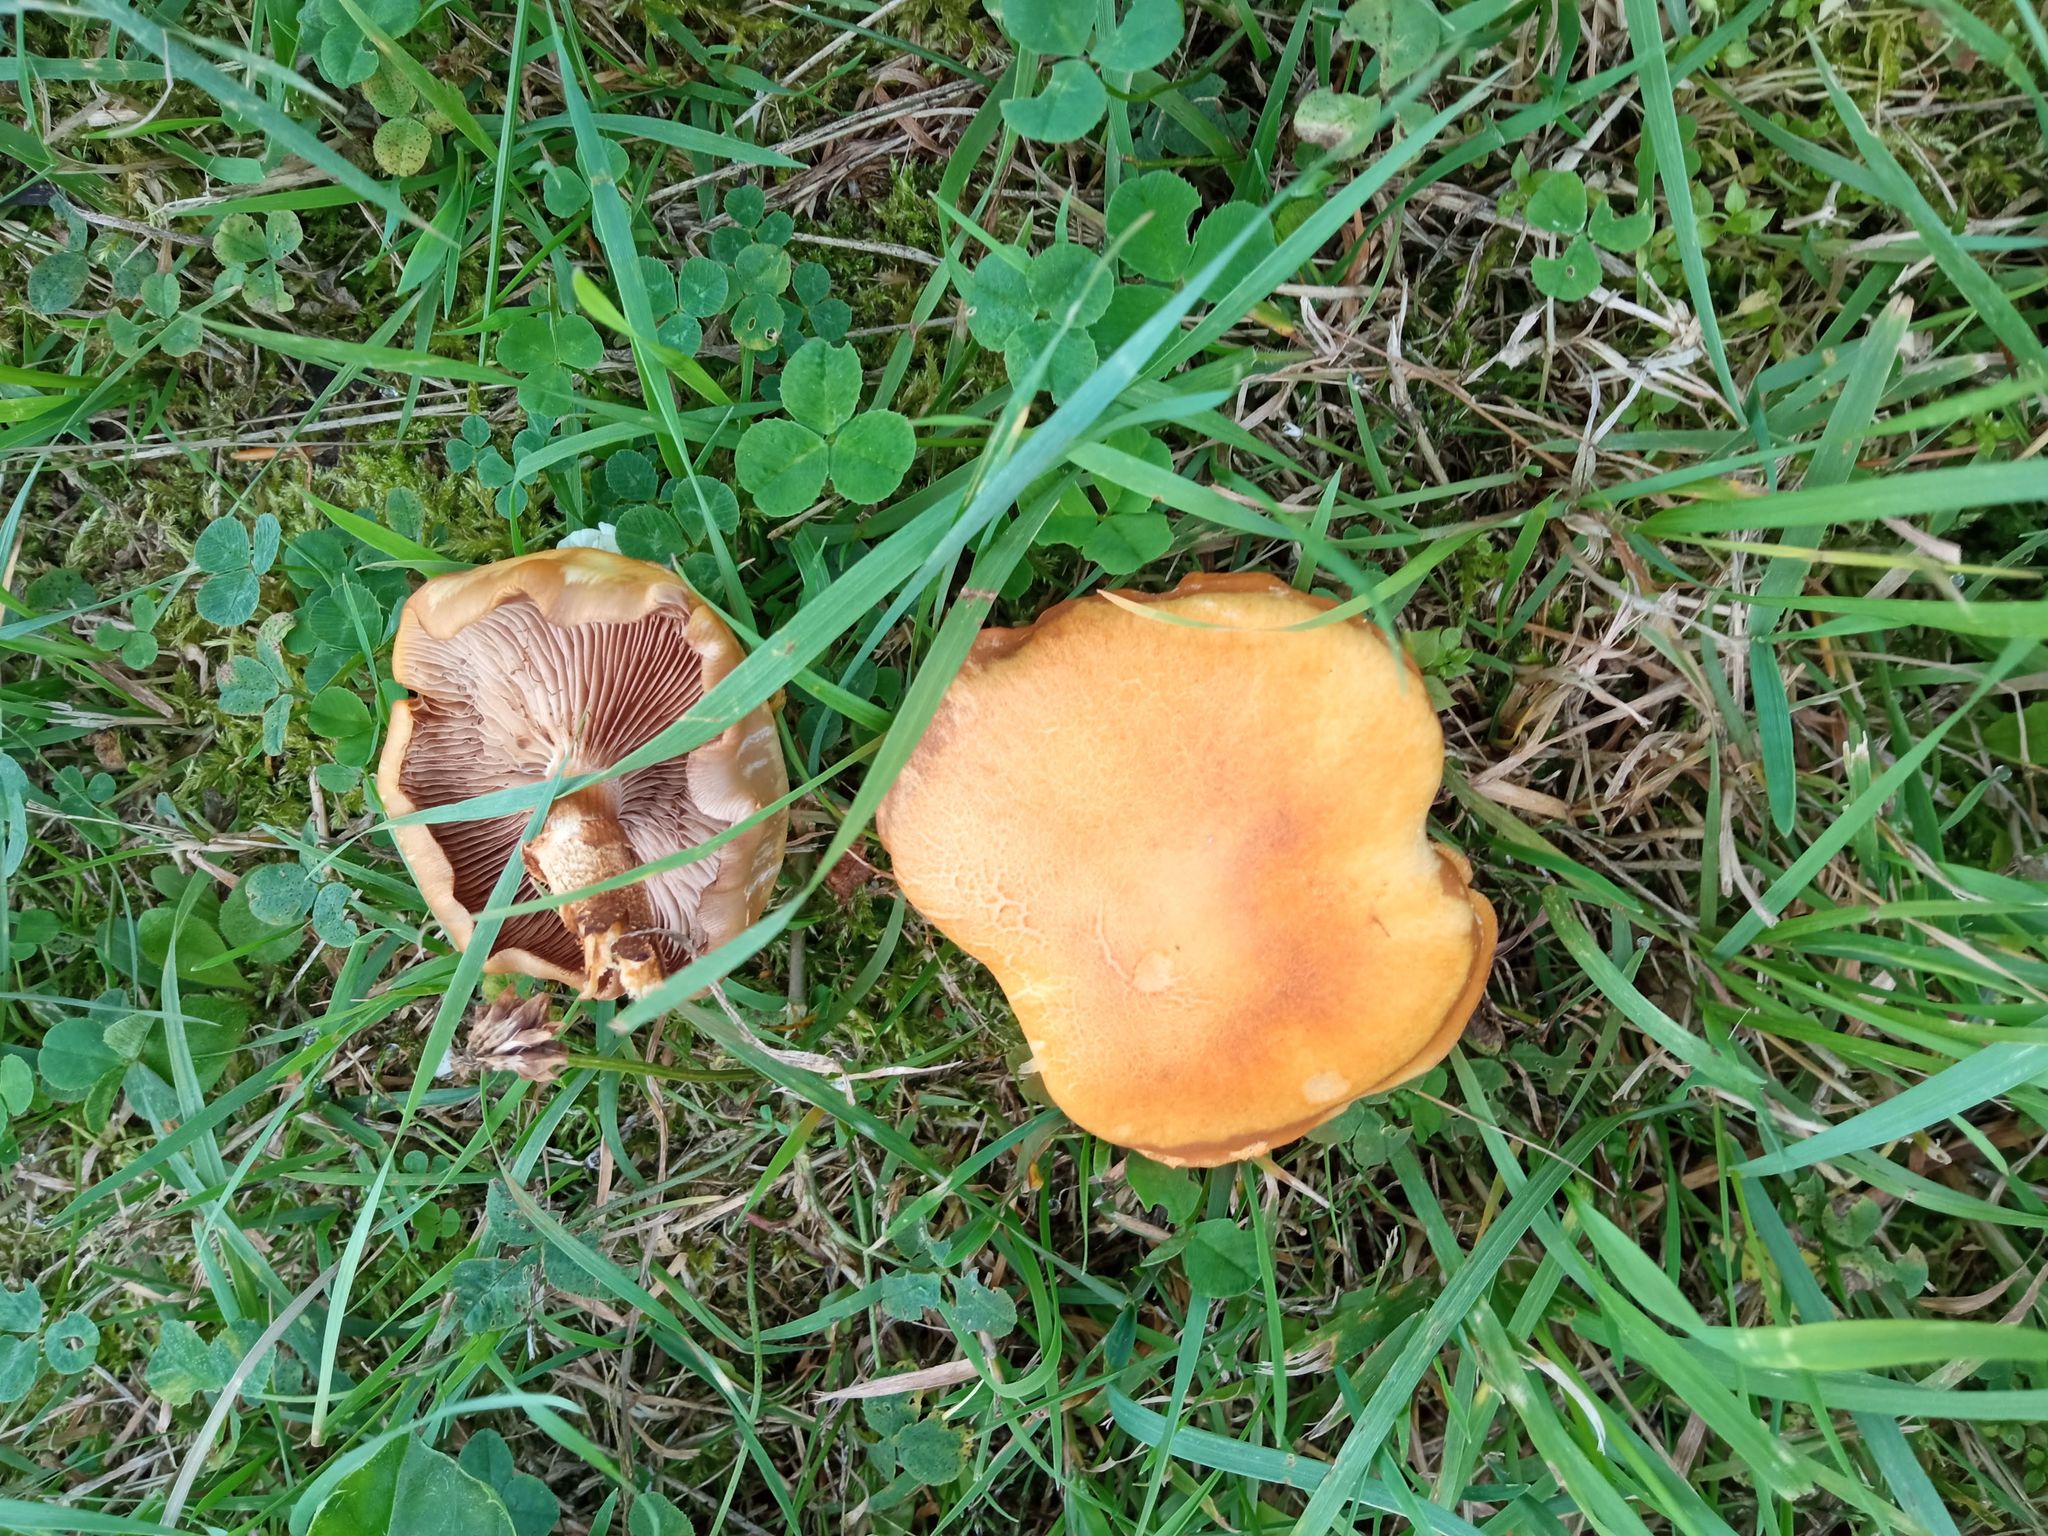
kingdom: Fungi
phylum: Basidiomycota
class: Agaricomycetes
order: Agaricales
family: Strophariaceae
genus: Kuehneromyces
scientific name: Kuehneromyces mutabilis
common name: Sheathed woodtuft
